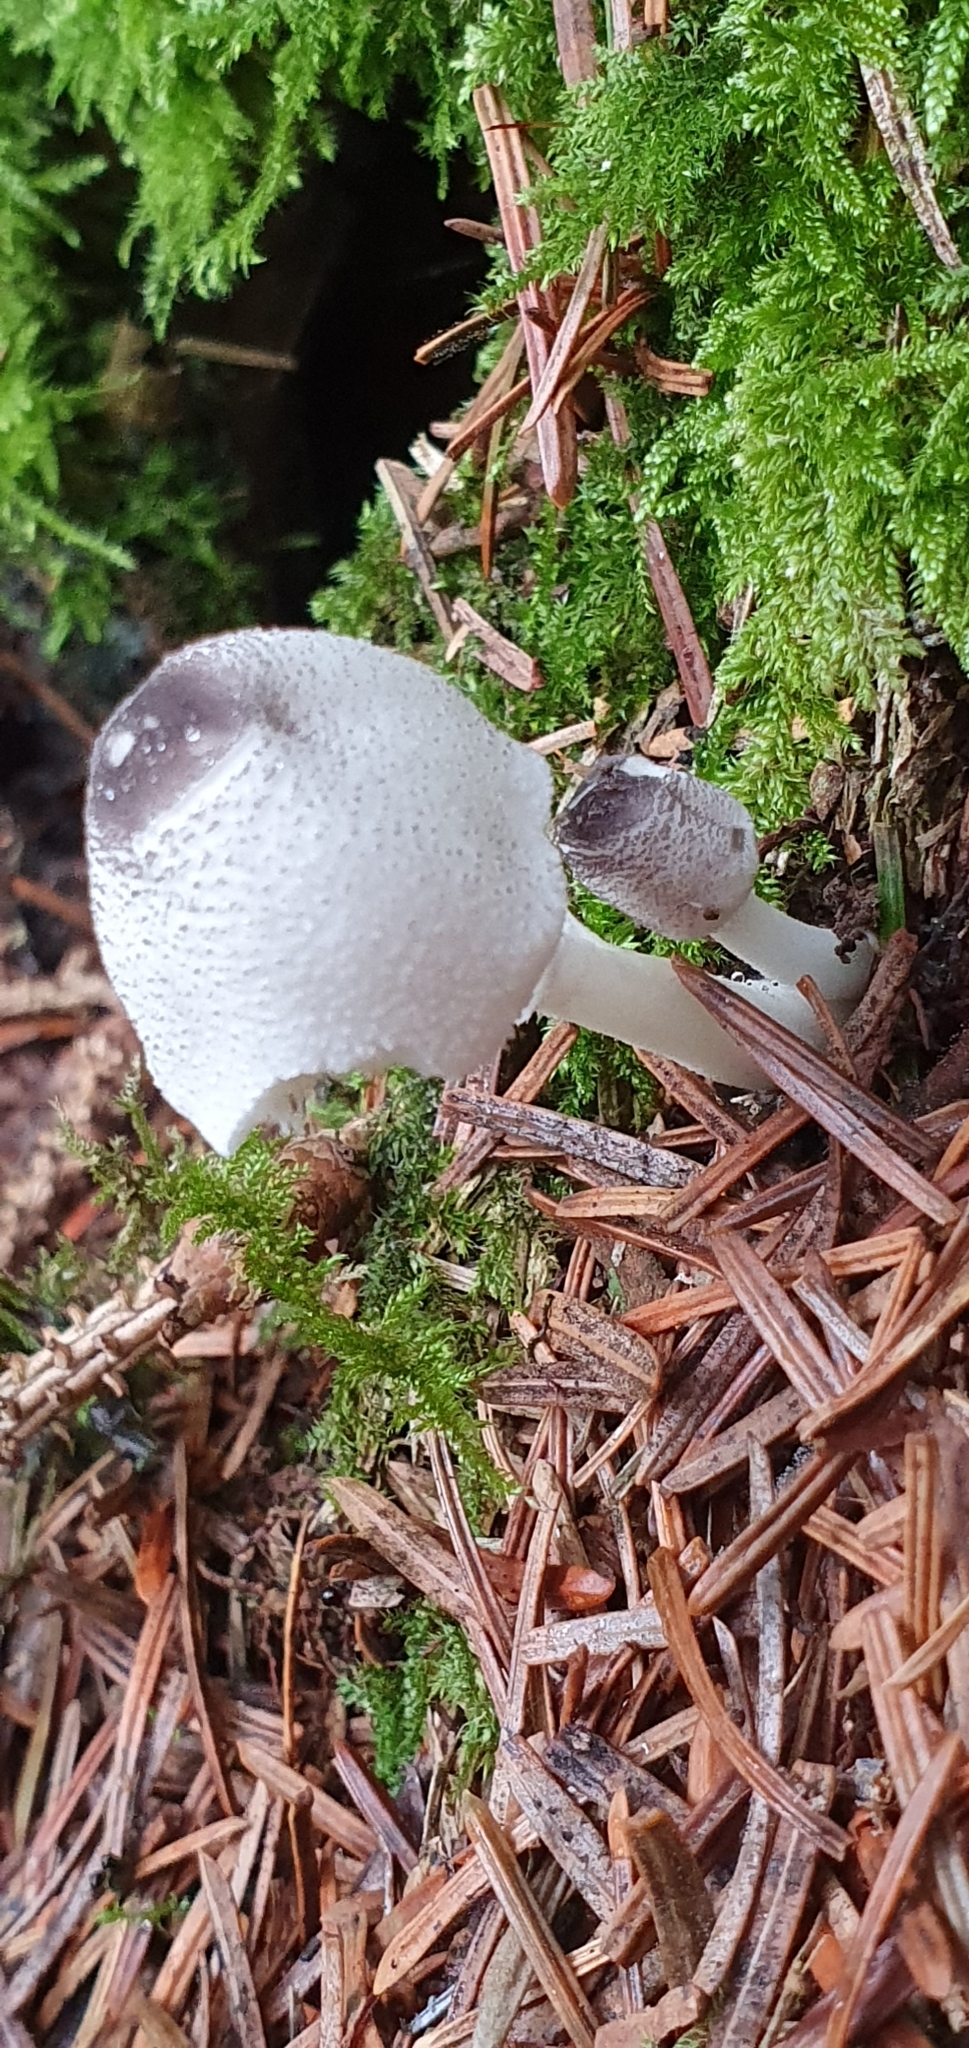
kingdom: Fungi
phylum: Basidiomycota
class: Agaricomycetes
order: Agaricales
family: Agaricaceae
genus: Leucocoprinus
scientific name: Leucocoprinus brebissonii
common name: Skullcap dapperling
